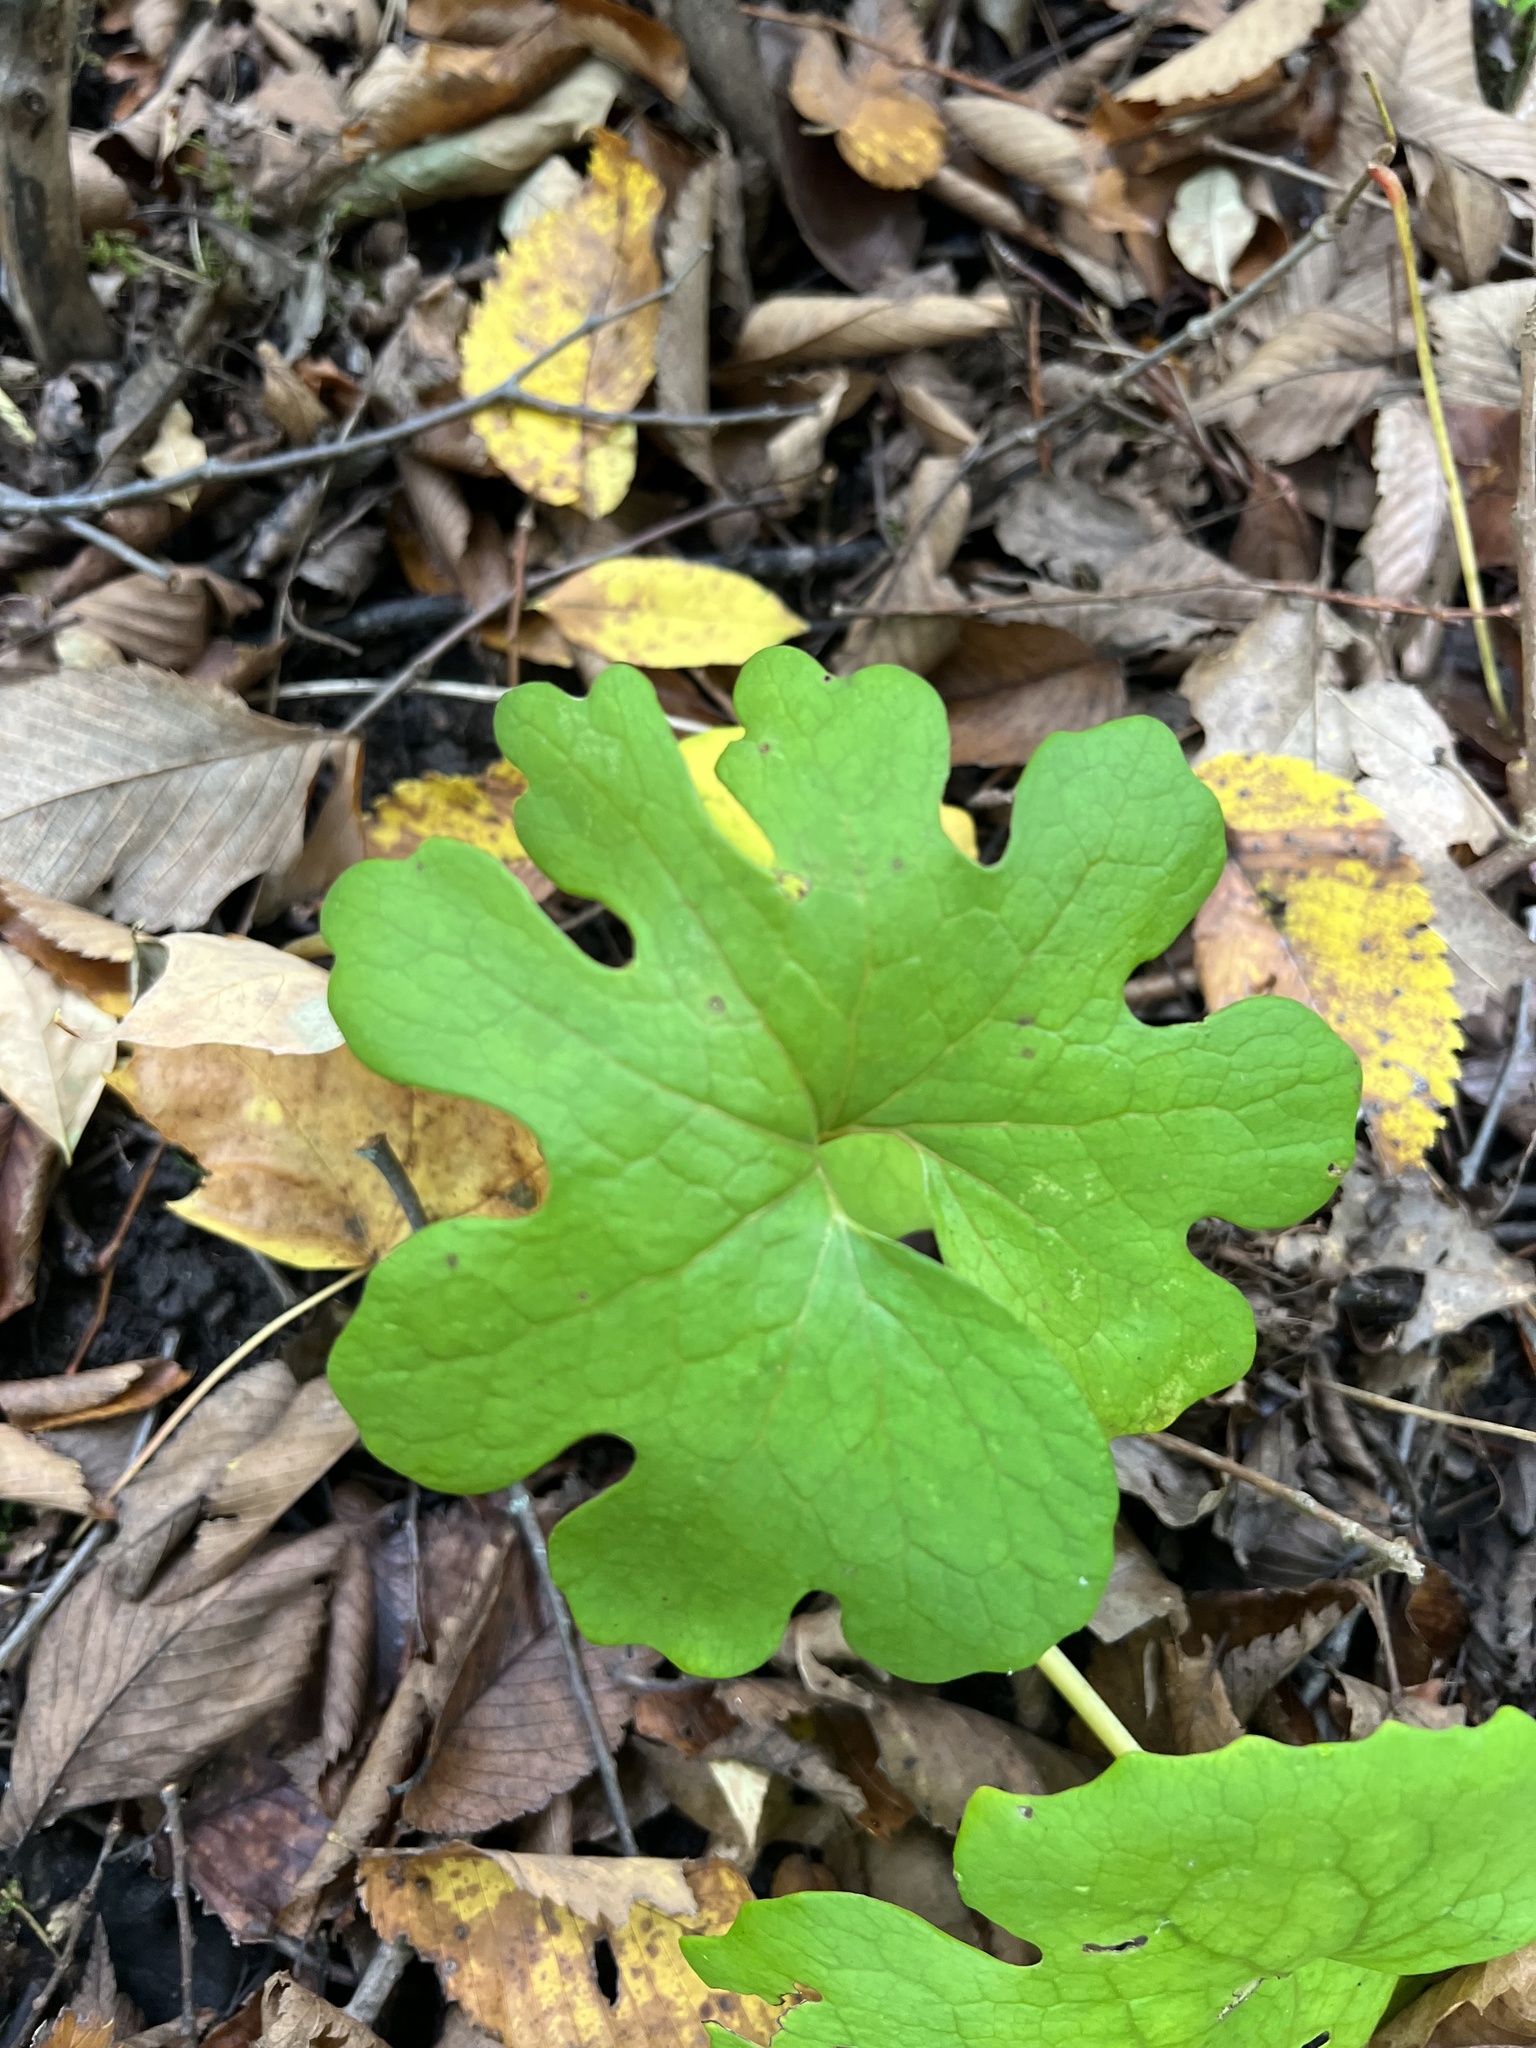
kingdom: Plantae
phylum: Tracheophyta
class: Magnoliopsida
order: Ranunculales
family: Papaveraceae
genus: Sanguinaria
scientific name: Sanguinaria canadensis
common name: Bloodroot
